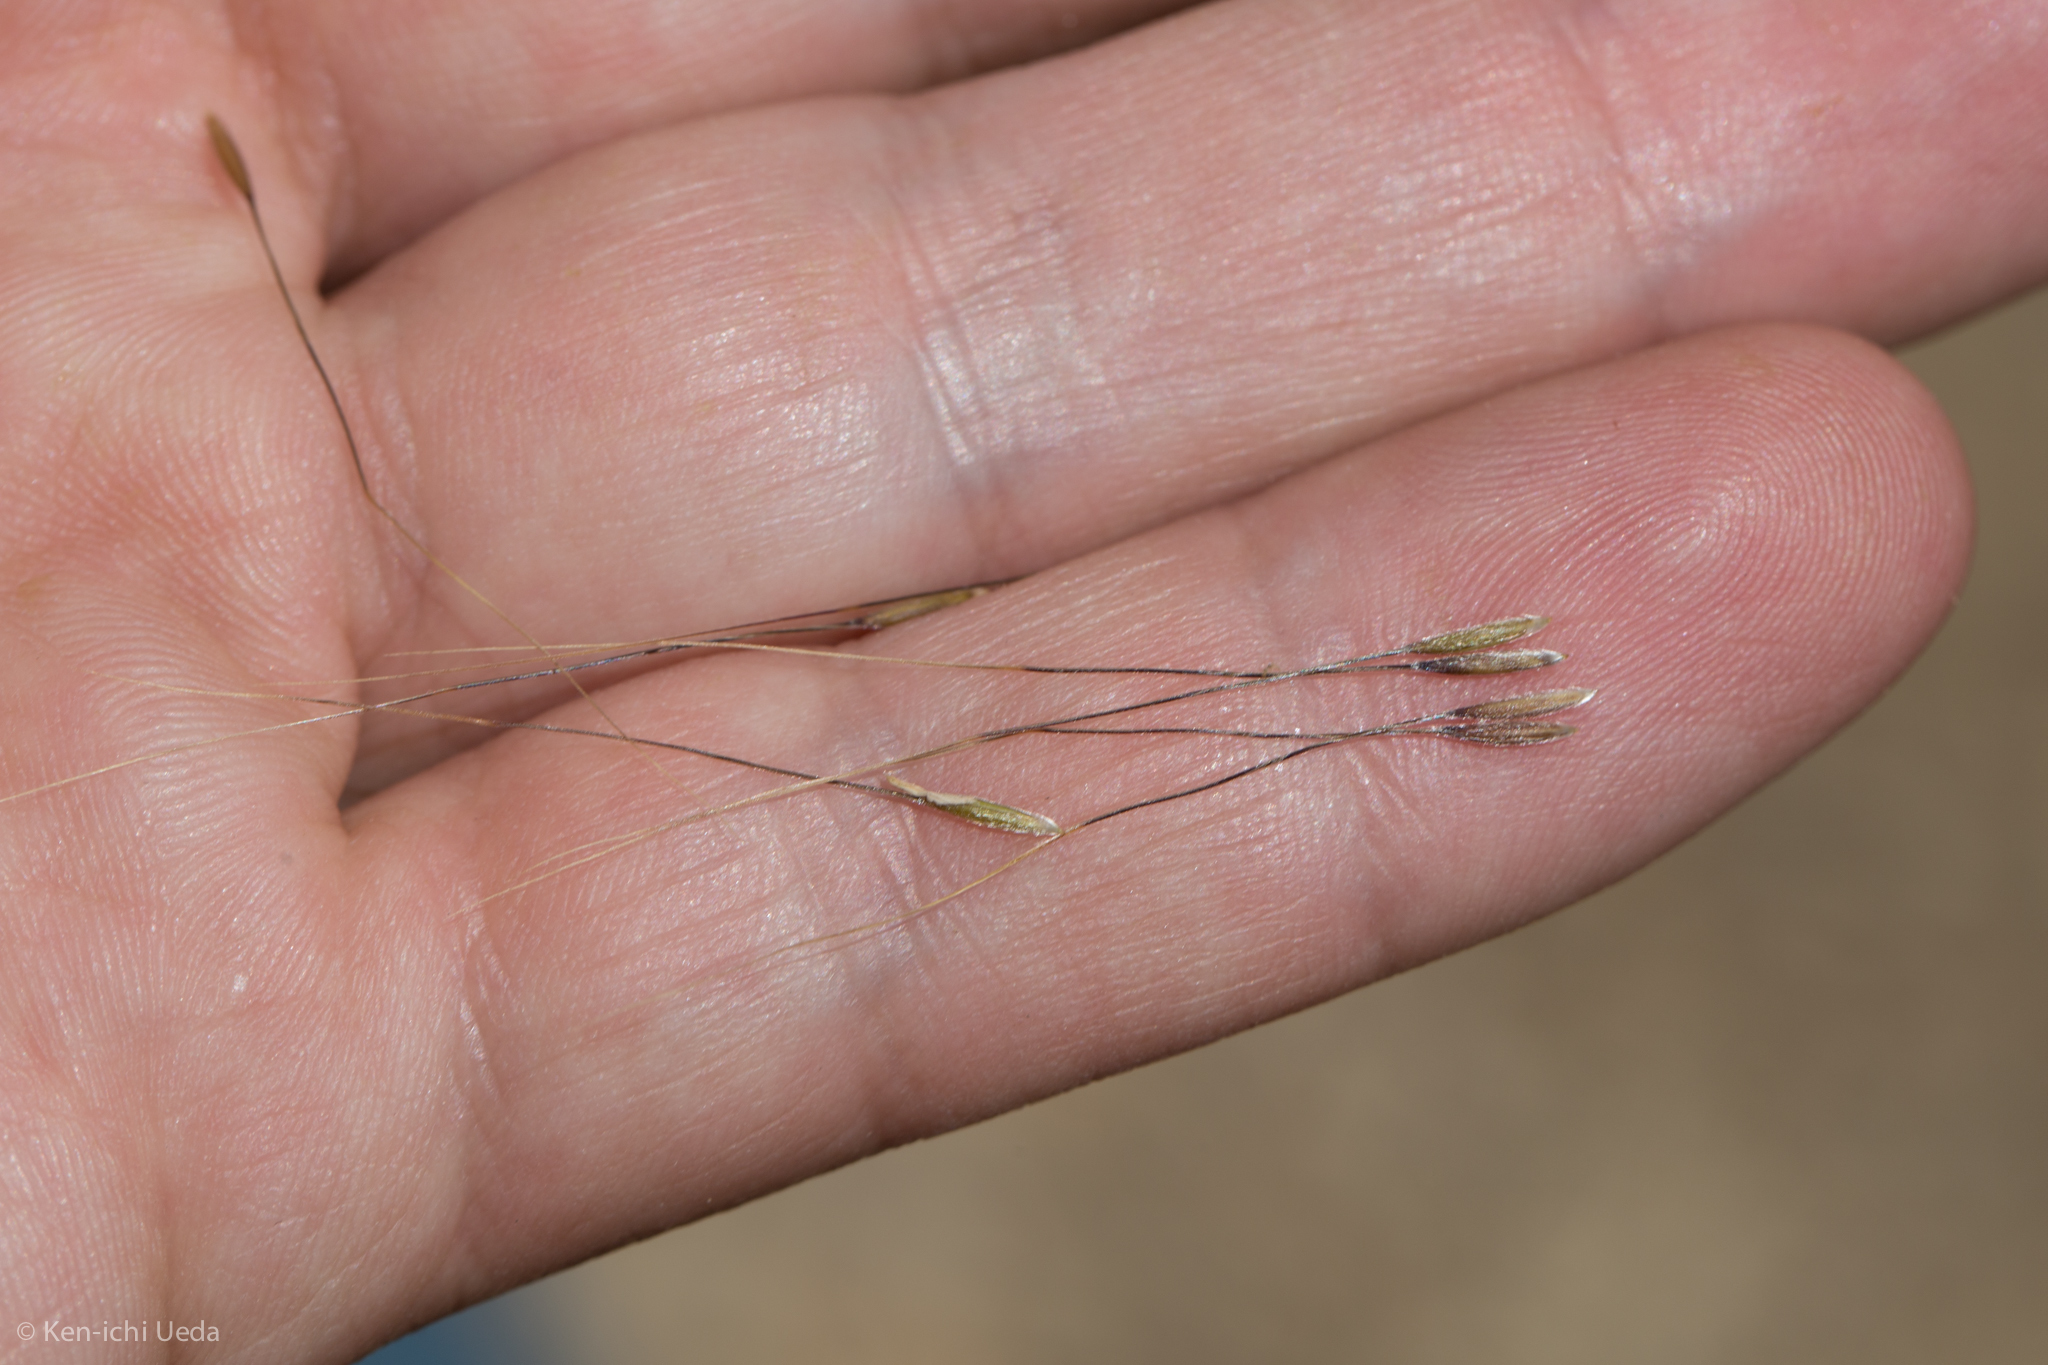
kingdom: Plantae
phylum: Tracheophyta
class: Liliopsida
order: Poales
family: Poaceae
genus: Nassella
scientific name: Nassella lepida
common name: Foothill needlegrass
